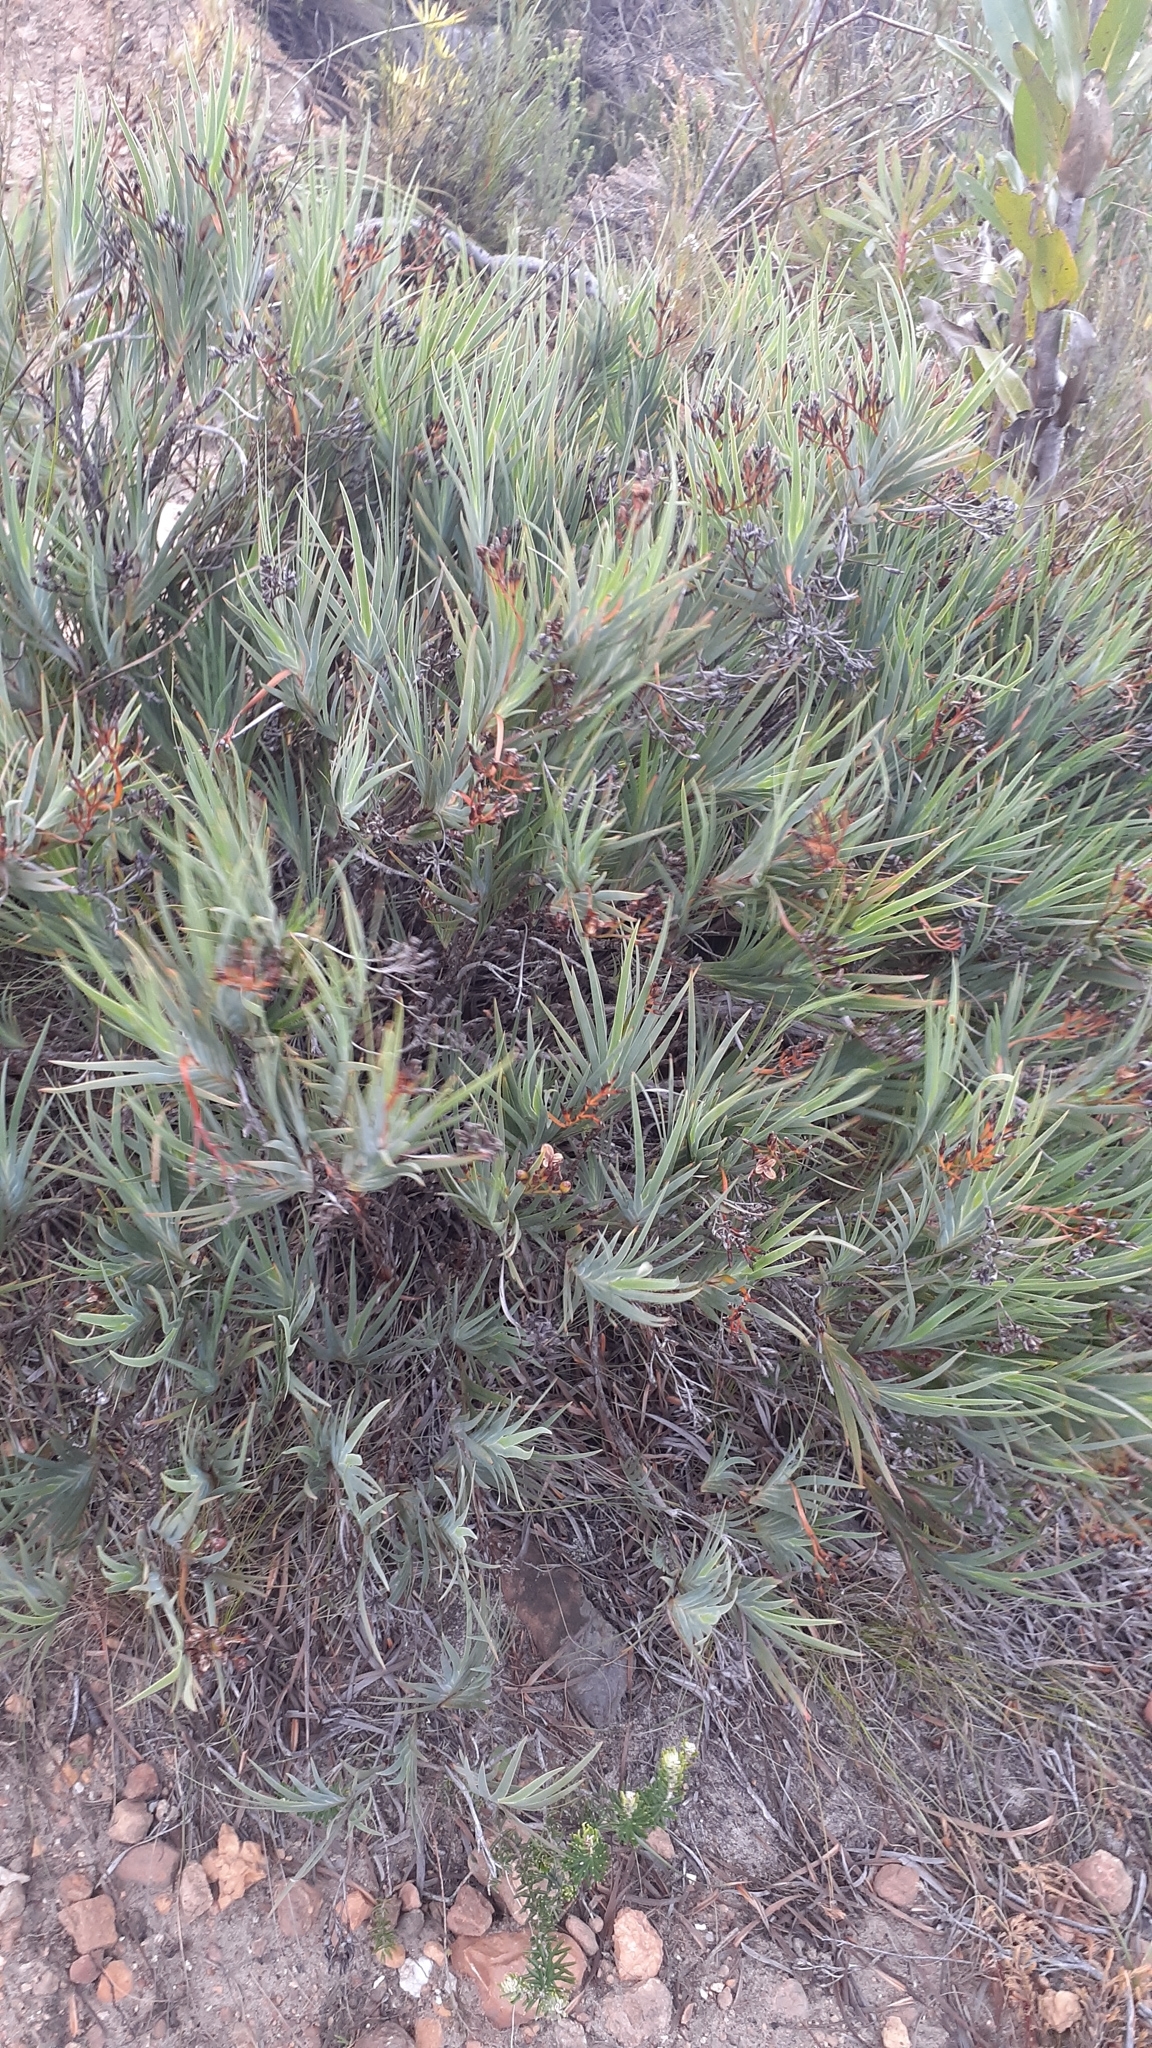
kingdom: Plantae
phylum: Tracheophyta
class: Liliopsida
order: Asparagales
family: Iridaceae
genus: Nivenia
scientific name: Nivenia stokoei
